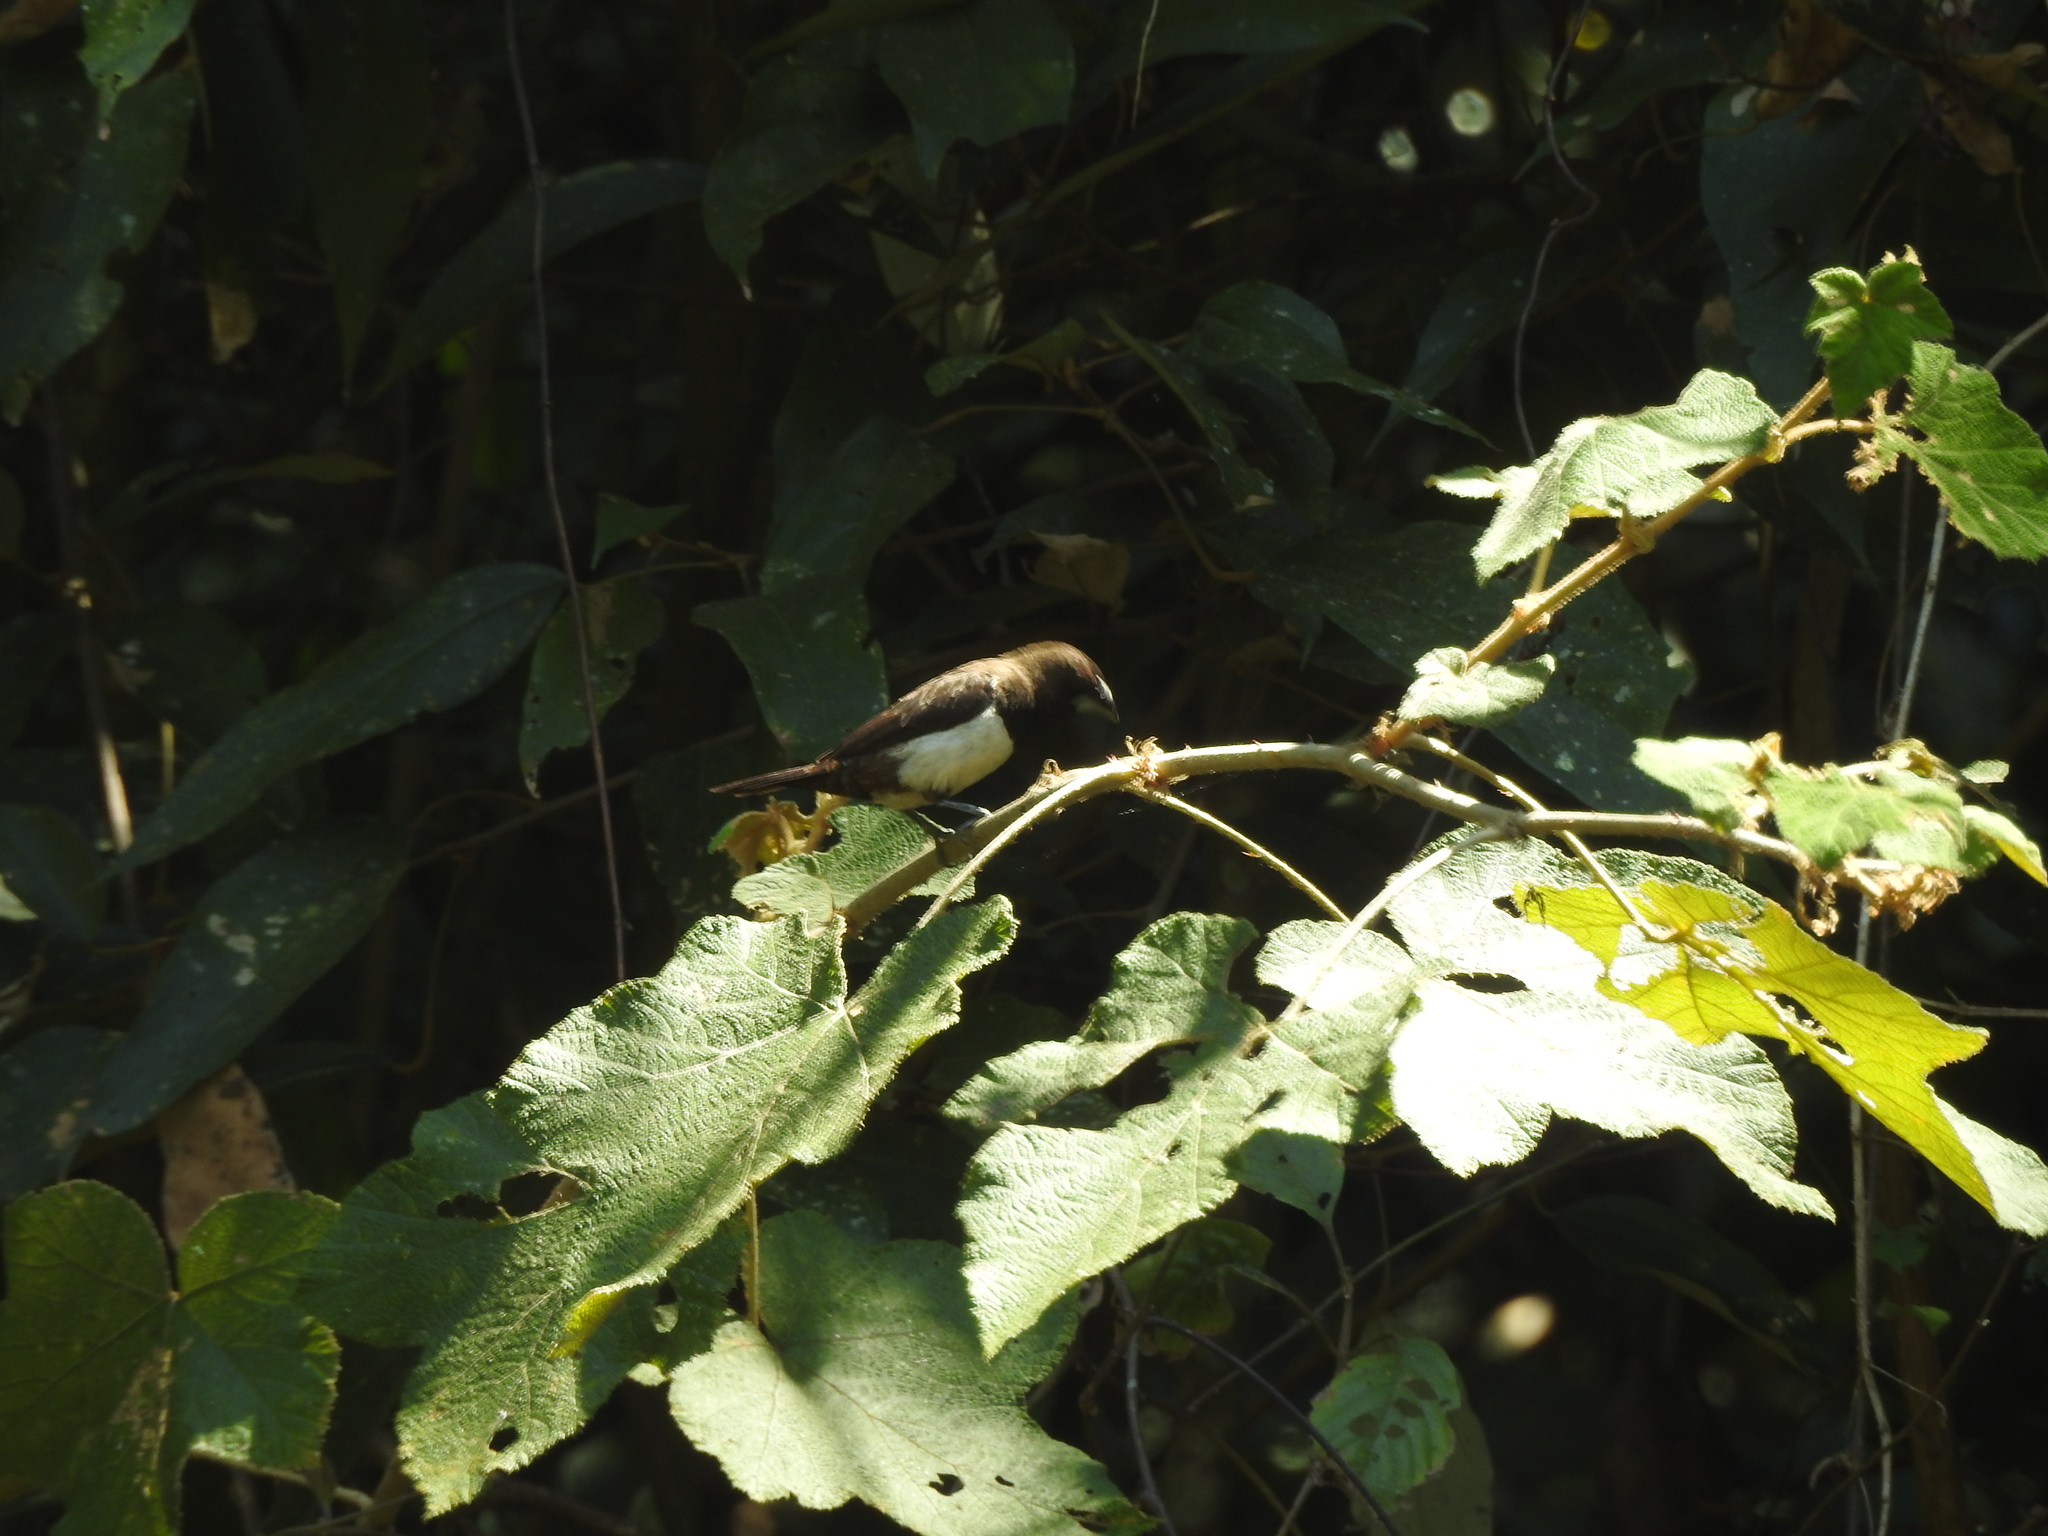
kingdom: Animalia
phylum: Chordata
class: Aves
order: Passeriformes
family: Estrildidae
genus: Lonchura
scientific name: Lonchura striata
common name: White-rumped munia
